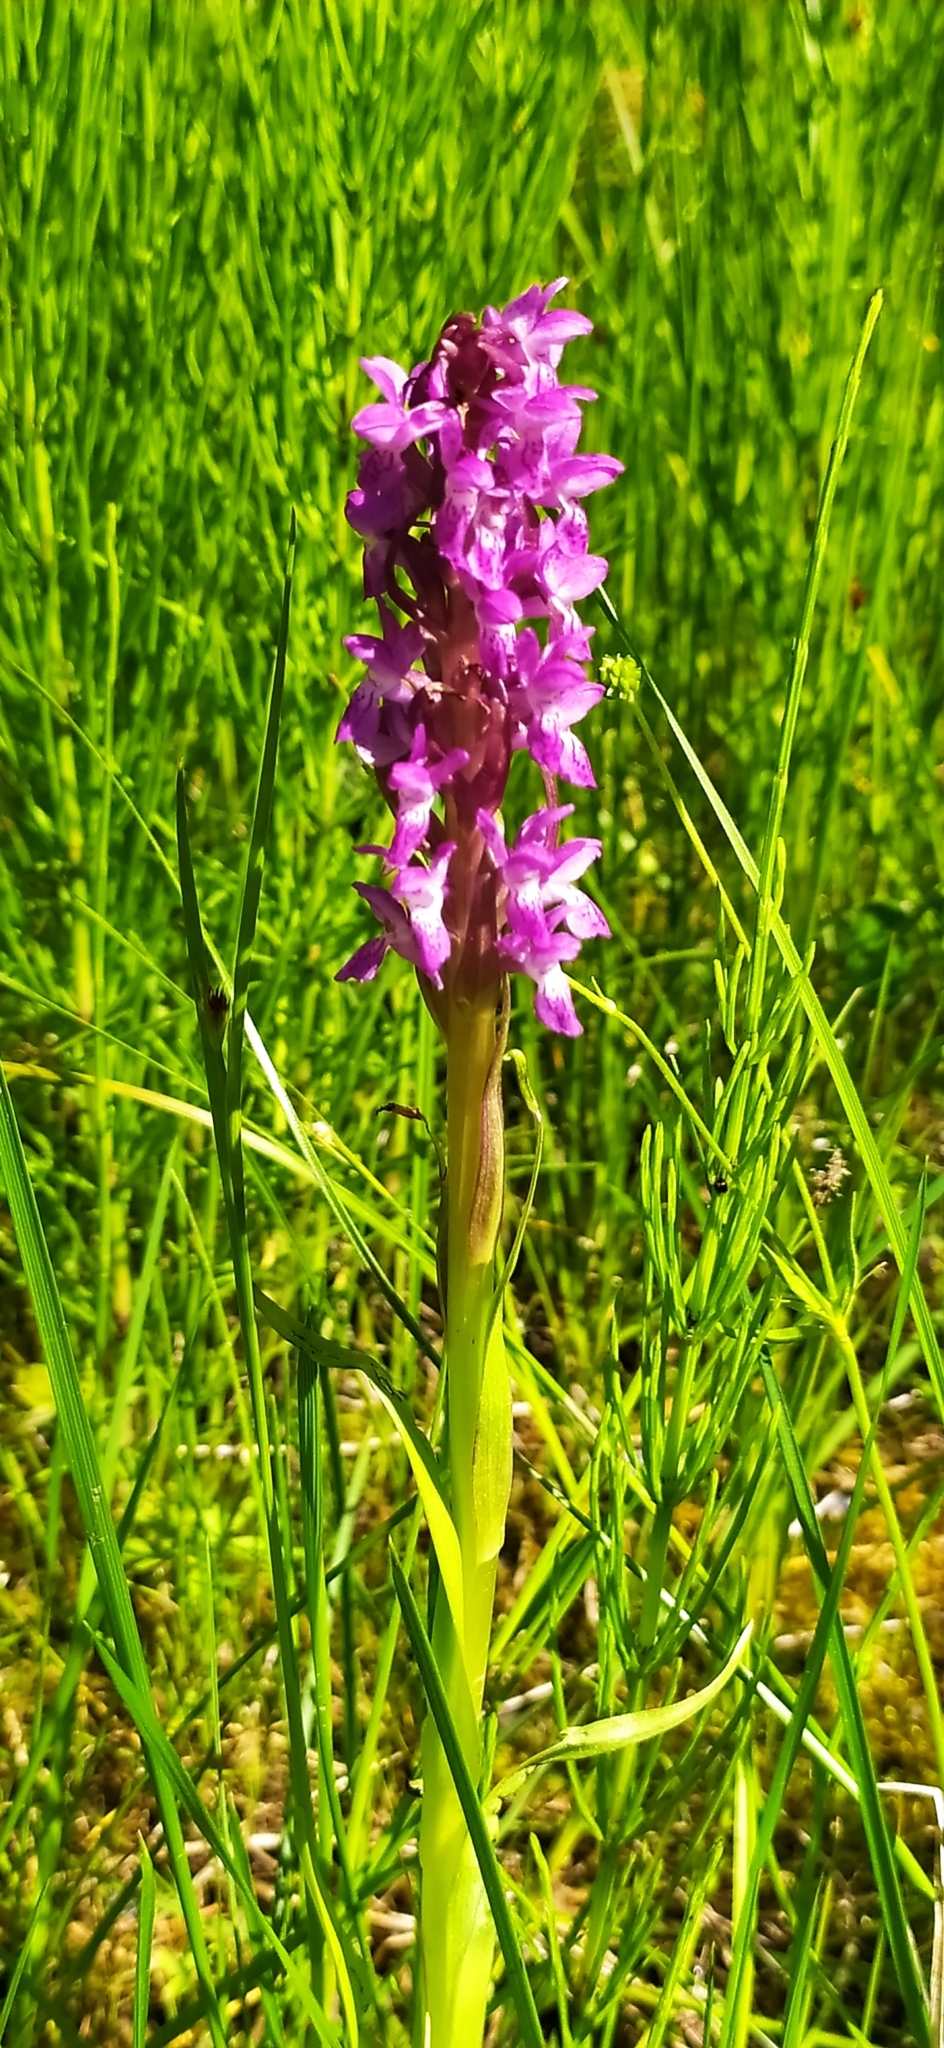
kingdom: Plantae
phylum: Tracheophyta
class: Liliopsida
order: Asparagales
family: Orchidaceae
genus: Dactylorhiza
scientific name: Dactylorhiza incarnata
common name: Early marsh-orchid
